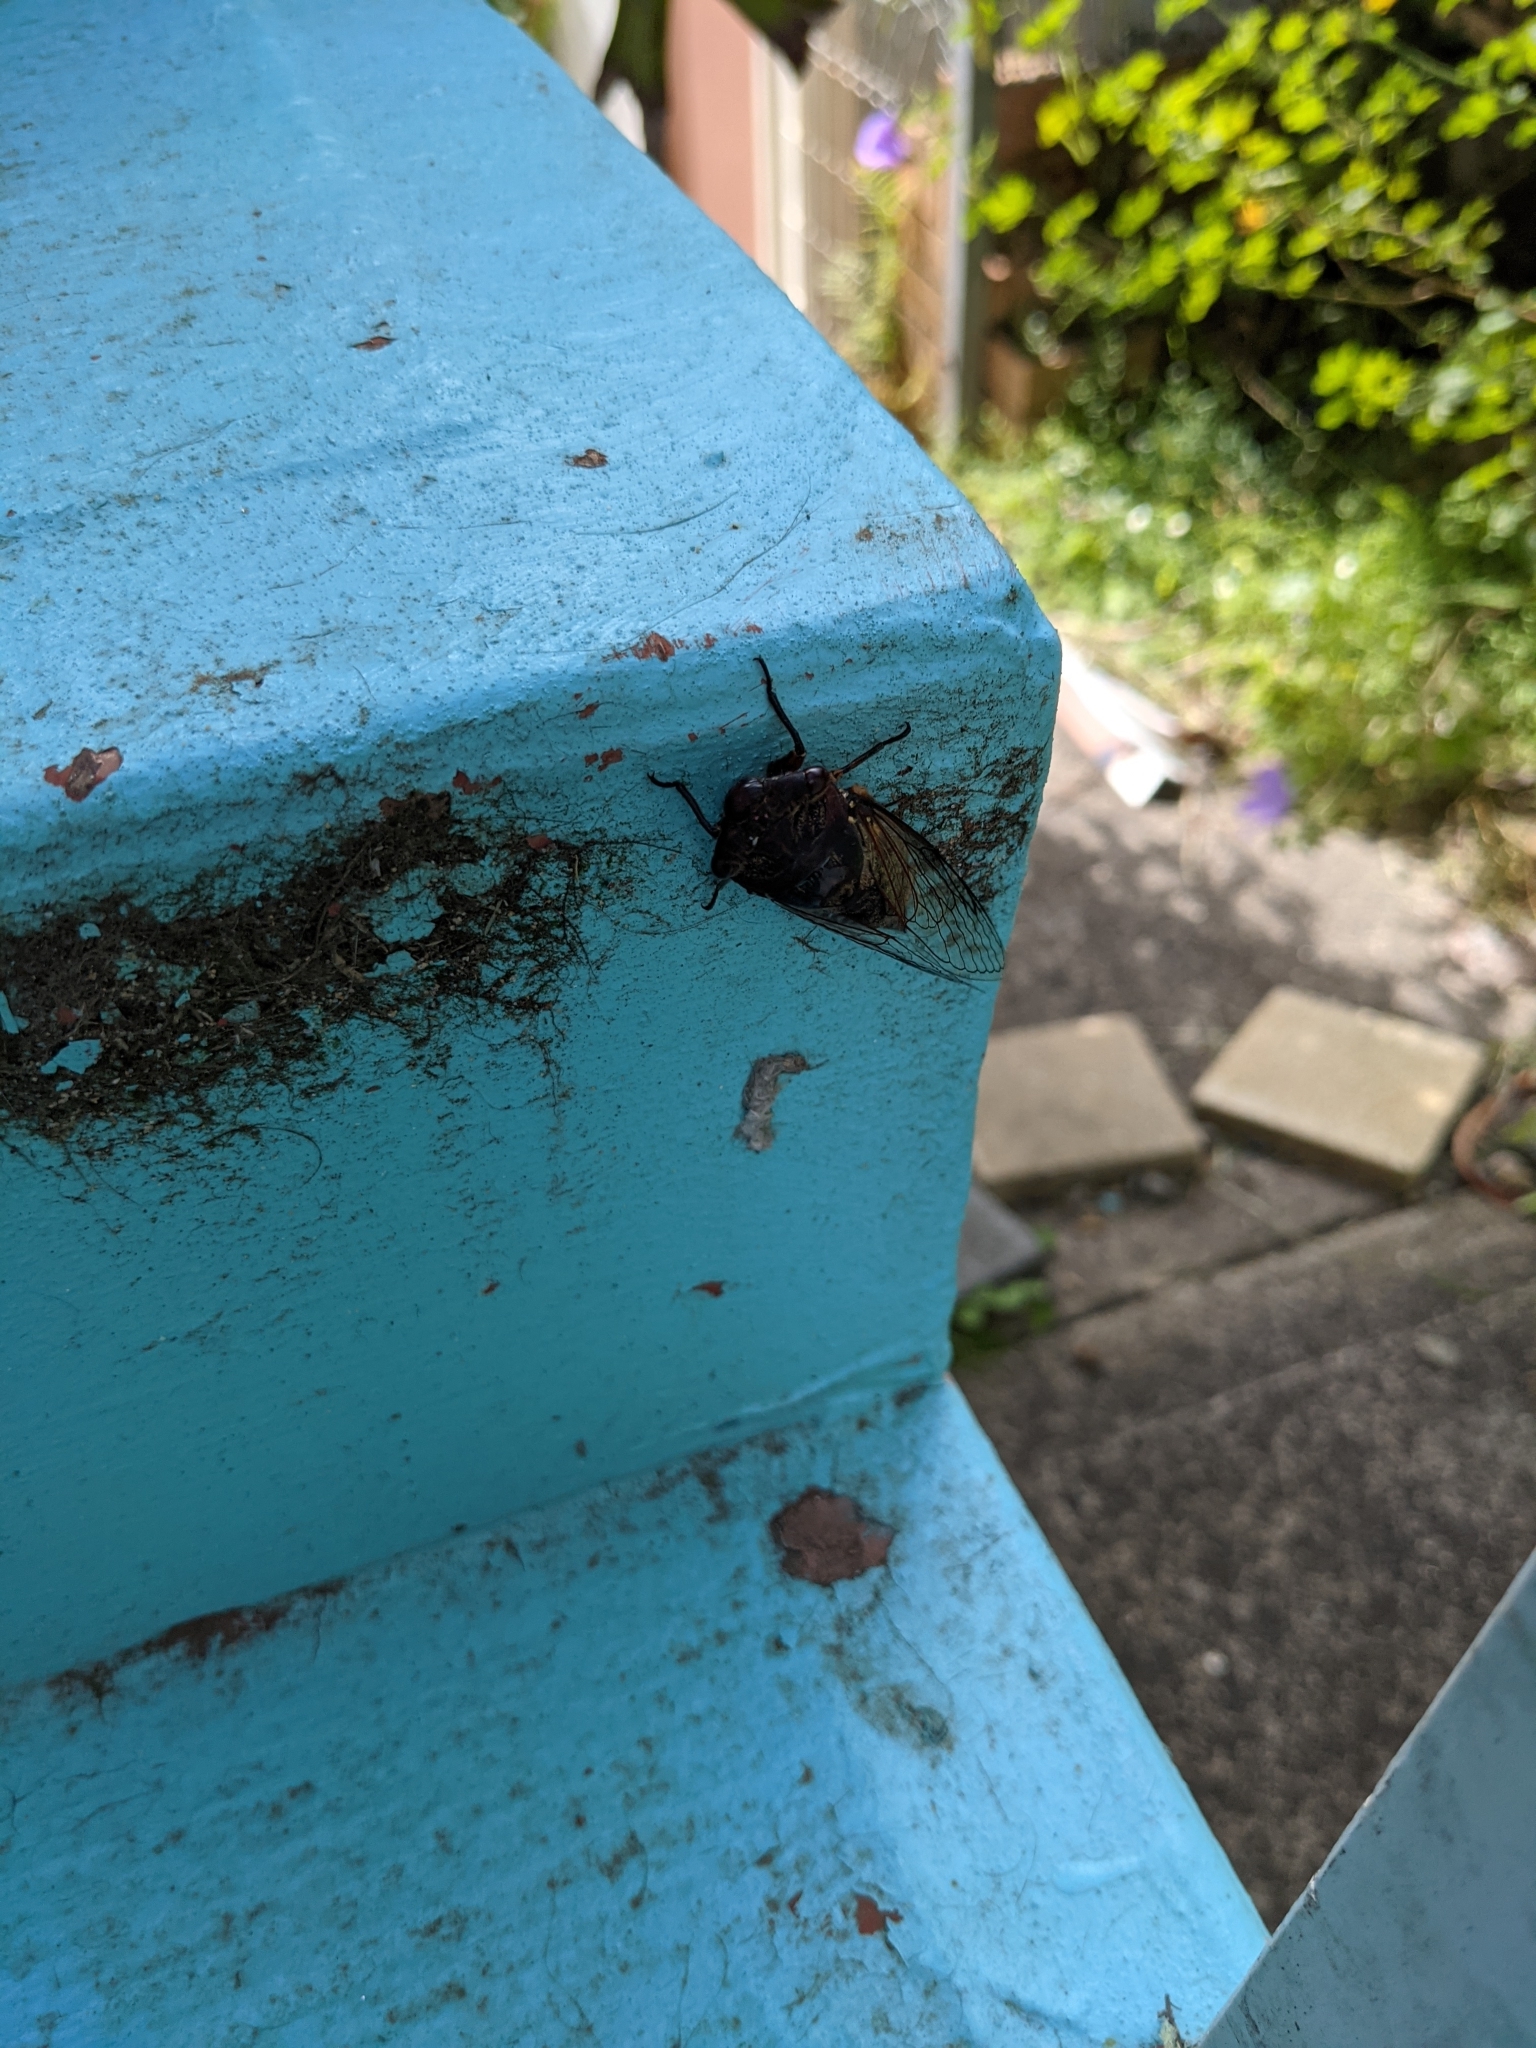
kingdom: Animalia
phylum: Arthropoda
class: Insecta
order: Hemiptera
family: Cicadidae
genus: Psaltoda
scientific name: Psaltoda plaga
